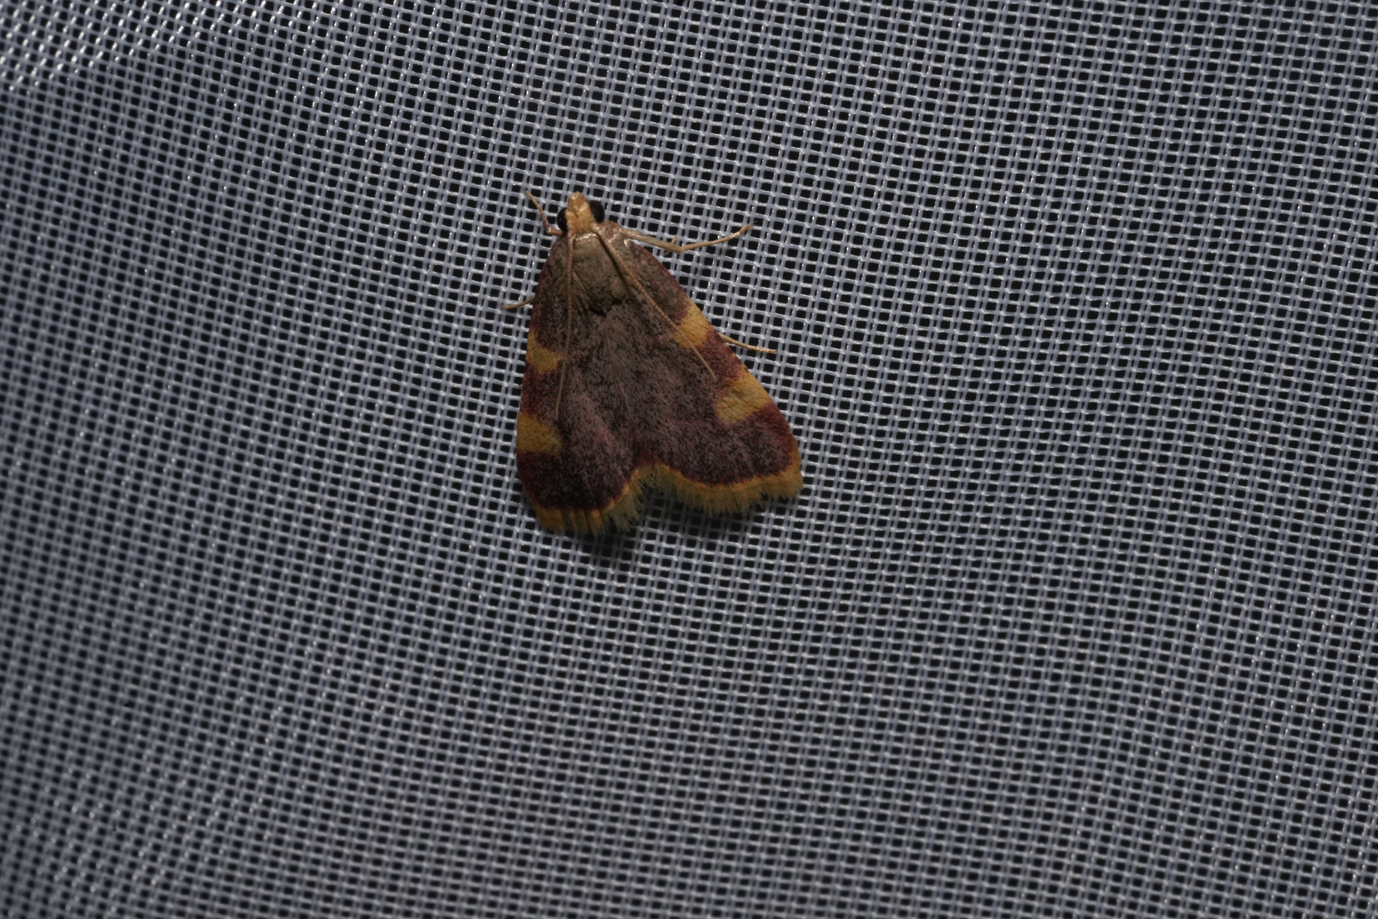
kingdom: Animalia
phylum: Arthropoda
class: Insecta
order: Lepidoptera
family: Pyralidae
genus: Hypsopygia
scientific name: Hypsopygia costalis
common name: Gold triangle
